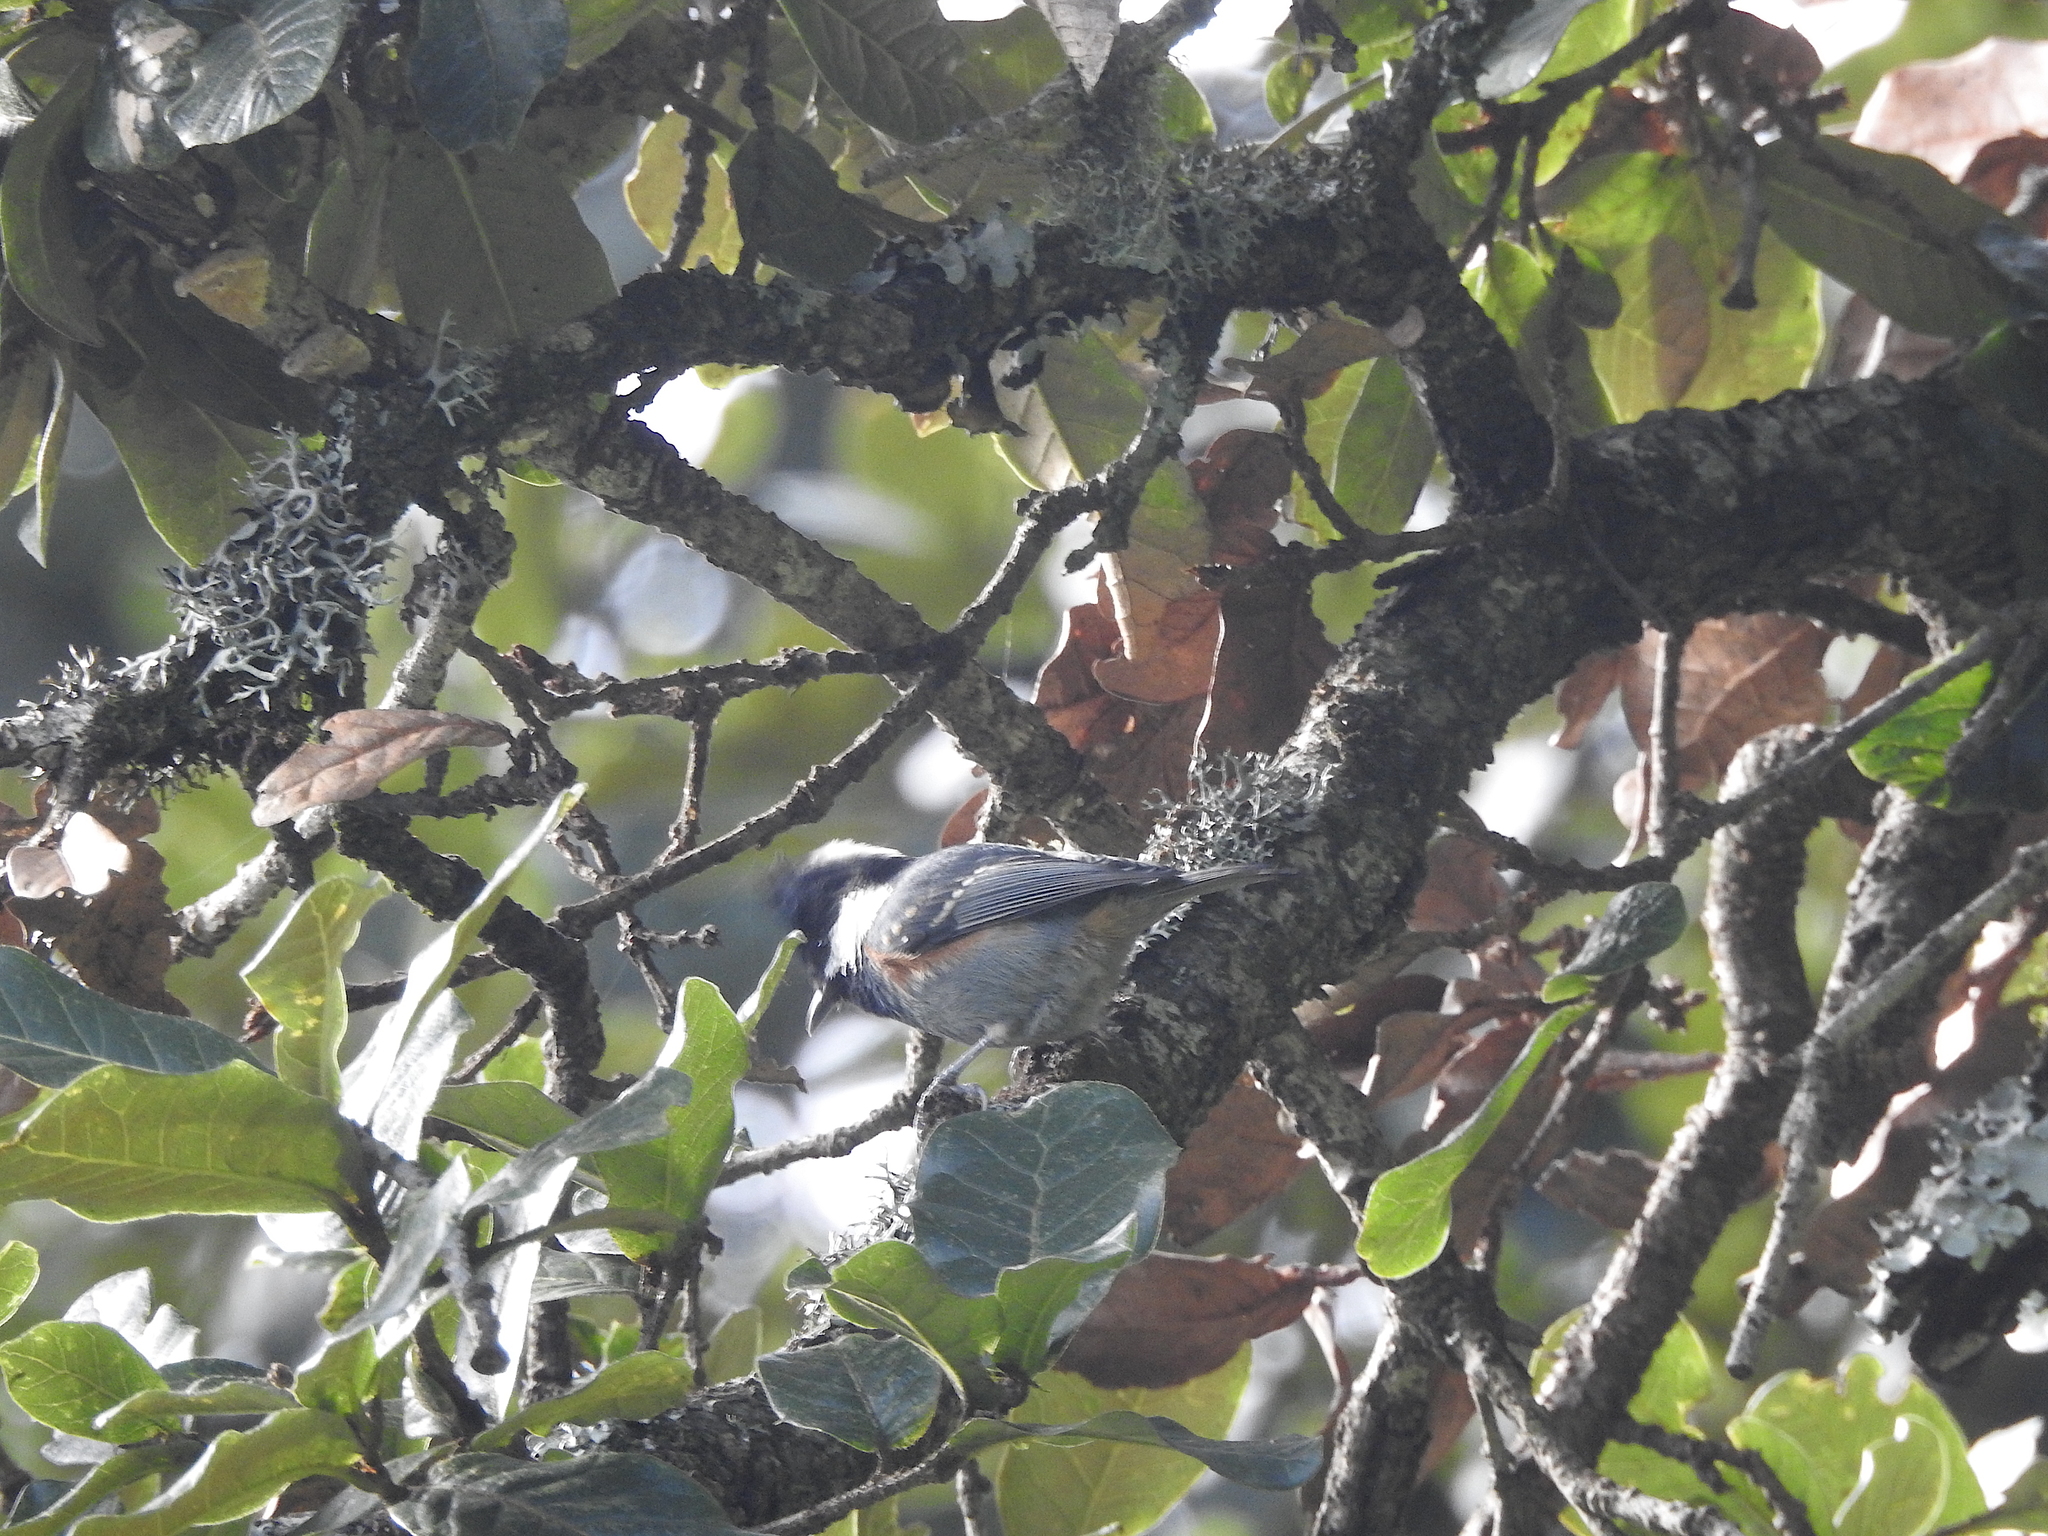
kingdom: Animalia
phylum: Chordata
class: Aves
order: Passeriformes
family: Paridae
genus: Periparus
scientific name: Periparus ater
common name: Coal tit
